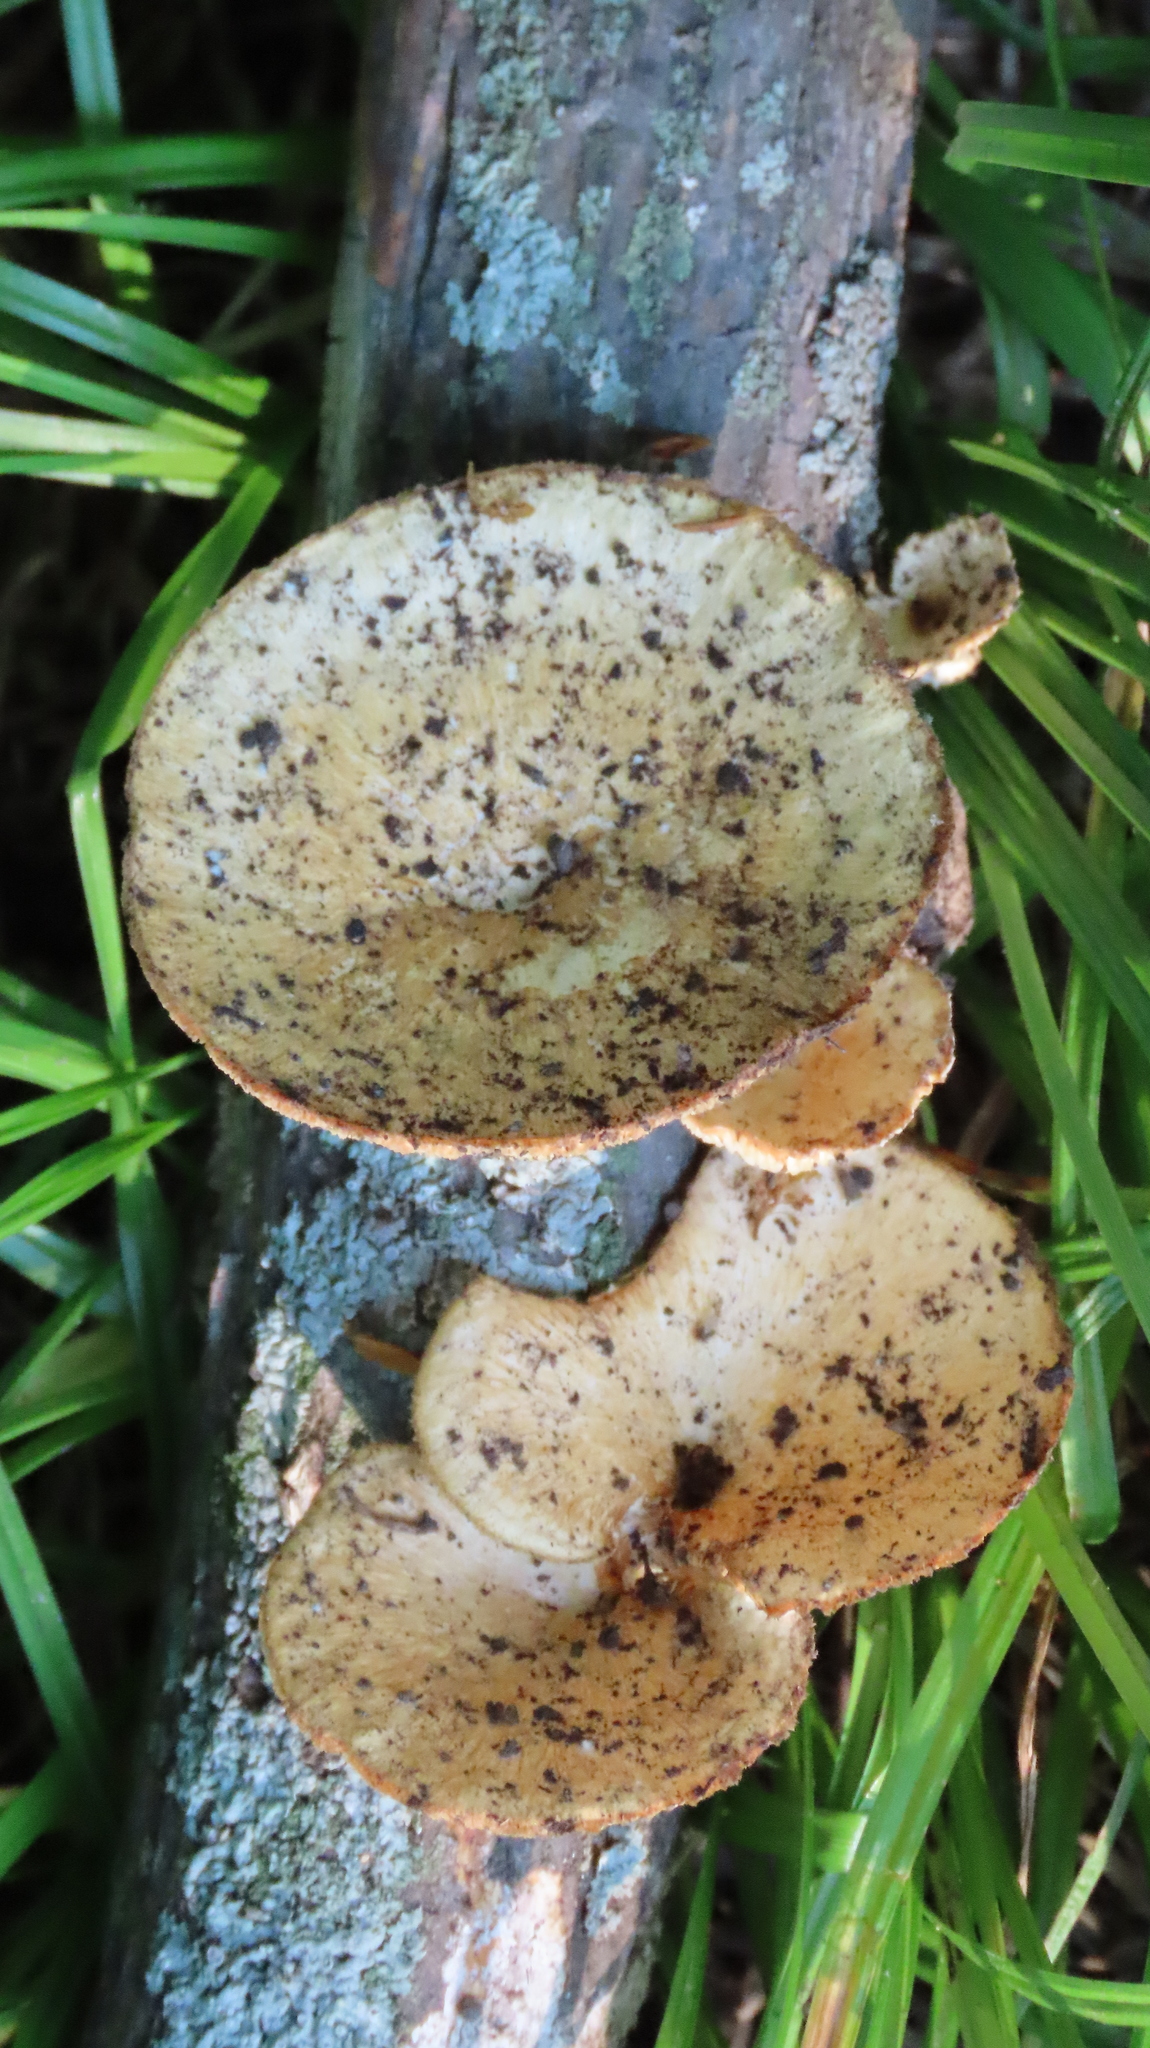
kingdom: Fungi
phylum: Basidiomycota
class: Agaricomycetes
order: Polyporales
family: Polyporaceae
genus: Neofavolus
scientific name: Neofavolus alveolaris
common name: Hexagonal-pored polypore
